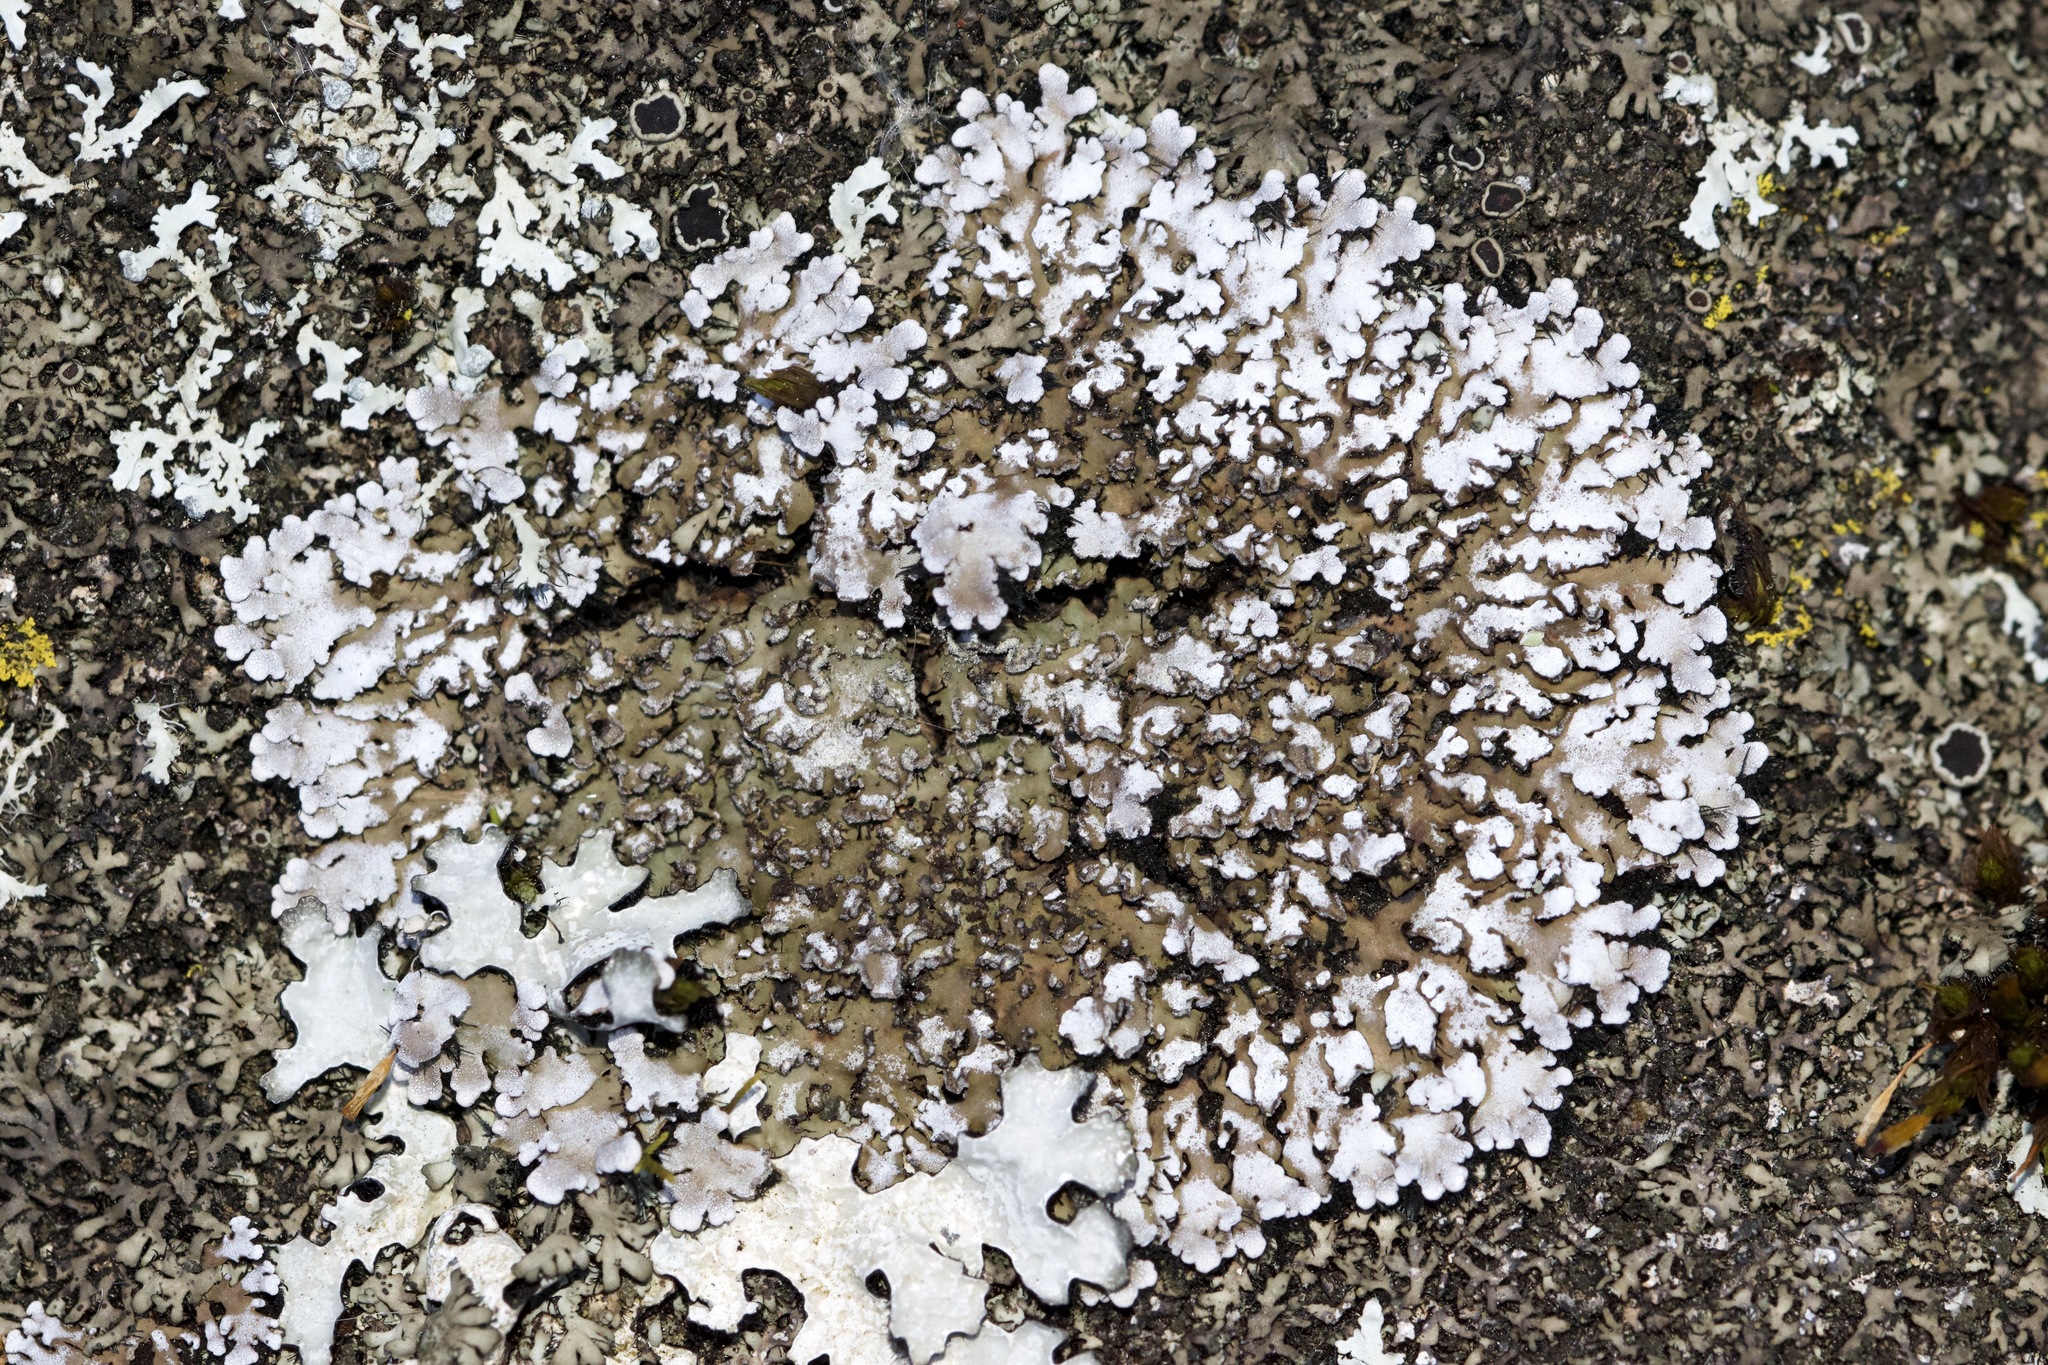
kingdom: Fungi
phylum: Ascomycota
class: Lecanoromycetes
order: Caliciales
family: Physciaceae
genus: Physconia
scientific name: Physconia detersa
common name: Bottlebrush frost lichen
